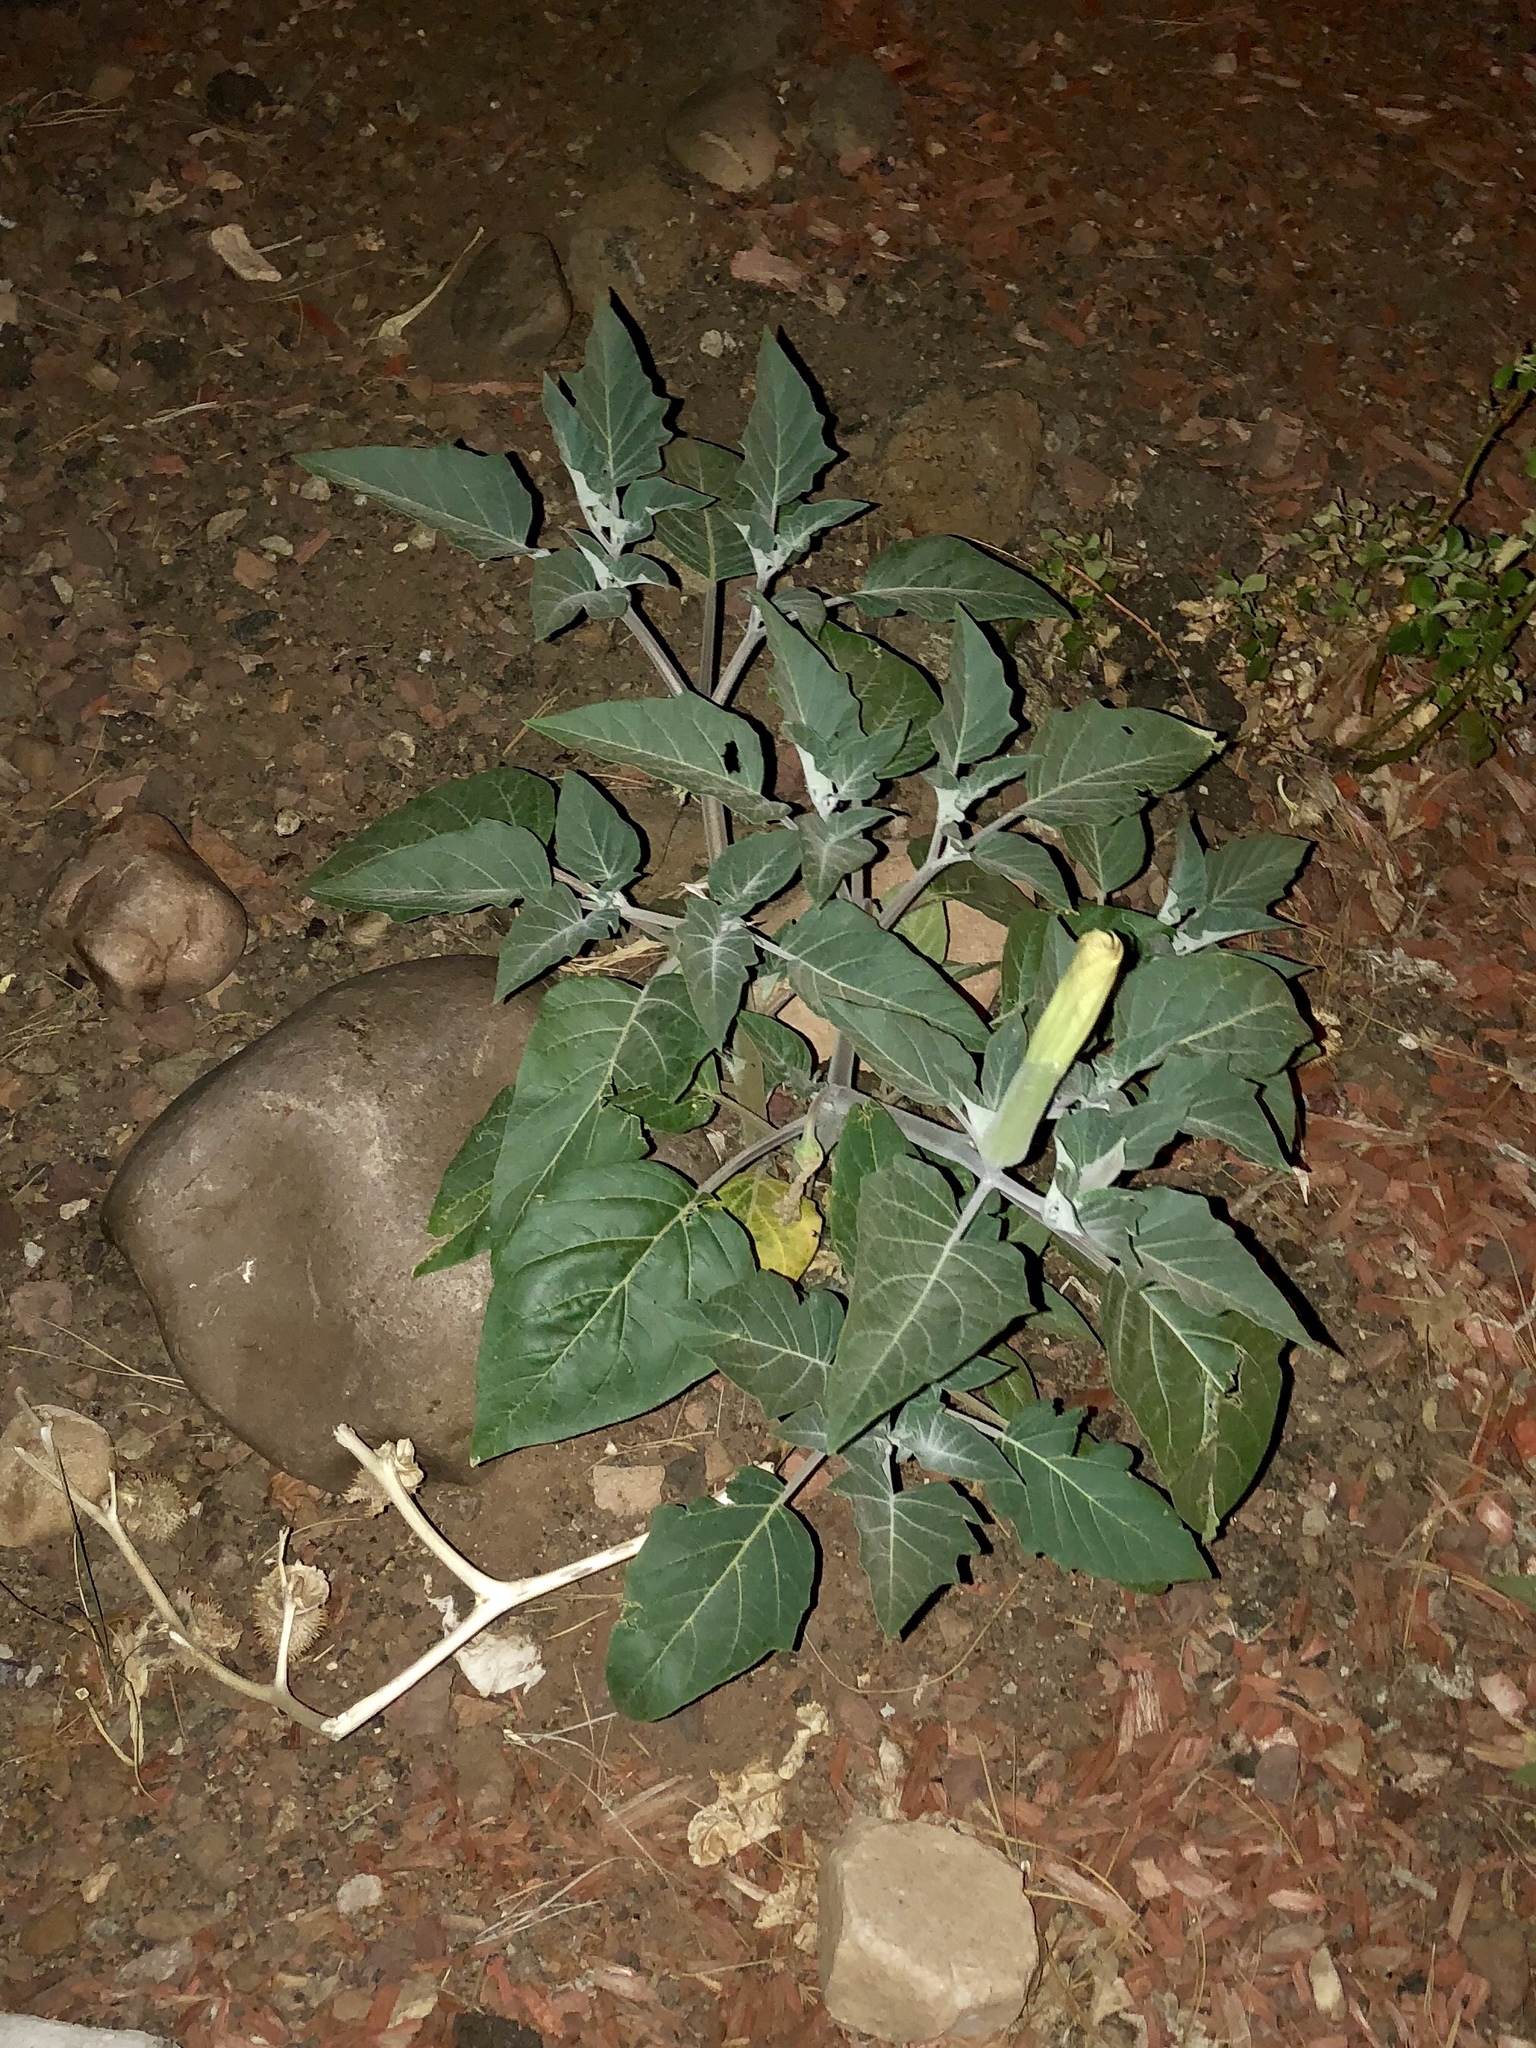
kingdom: Plantae
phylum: Tracheophyta
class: Magnoliopsida
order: Solanales
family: Solanaceae
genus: Datura
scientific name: Datura wrightii
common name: Sacred thorn-apple
